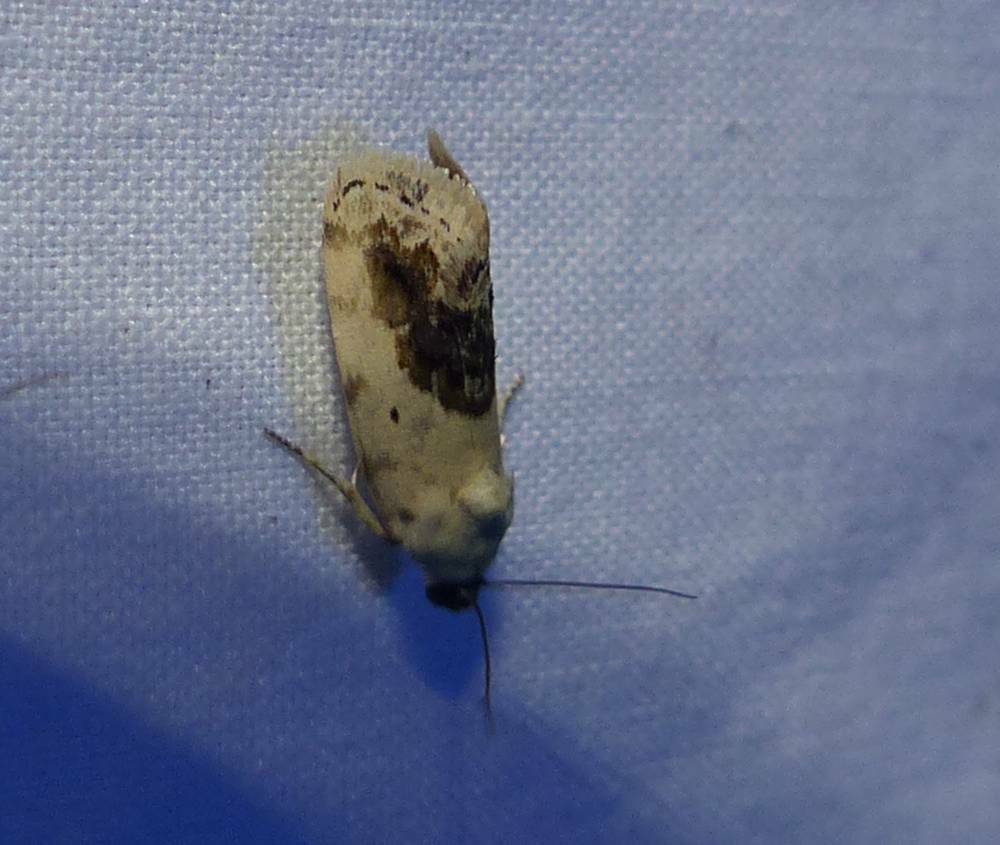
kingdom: Animalia
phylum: Arthropoda
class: Insecta
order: Lepidoptera
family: Noctuidae
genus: Acontia
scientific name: Acontia erastrioides
